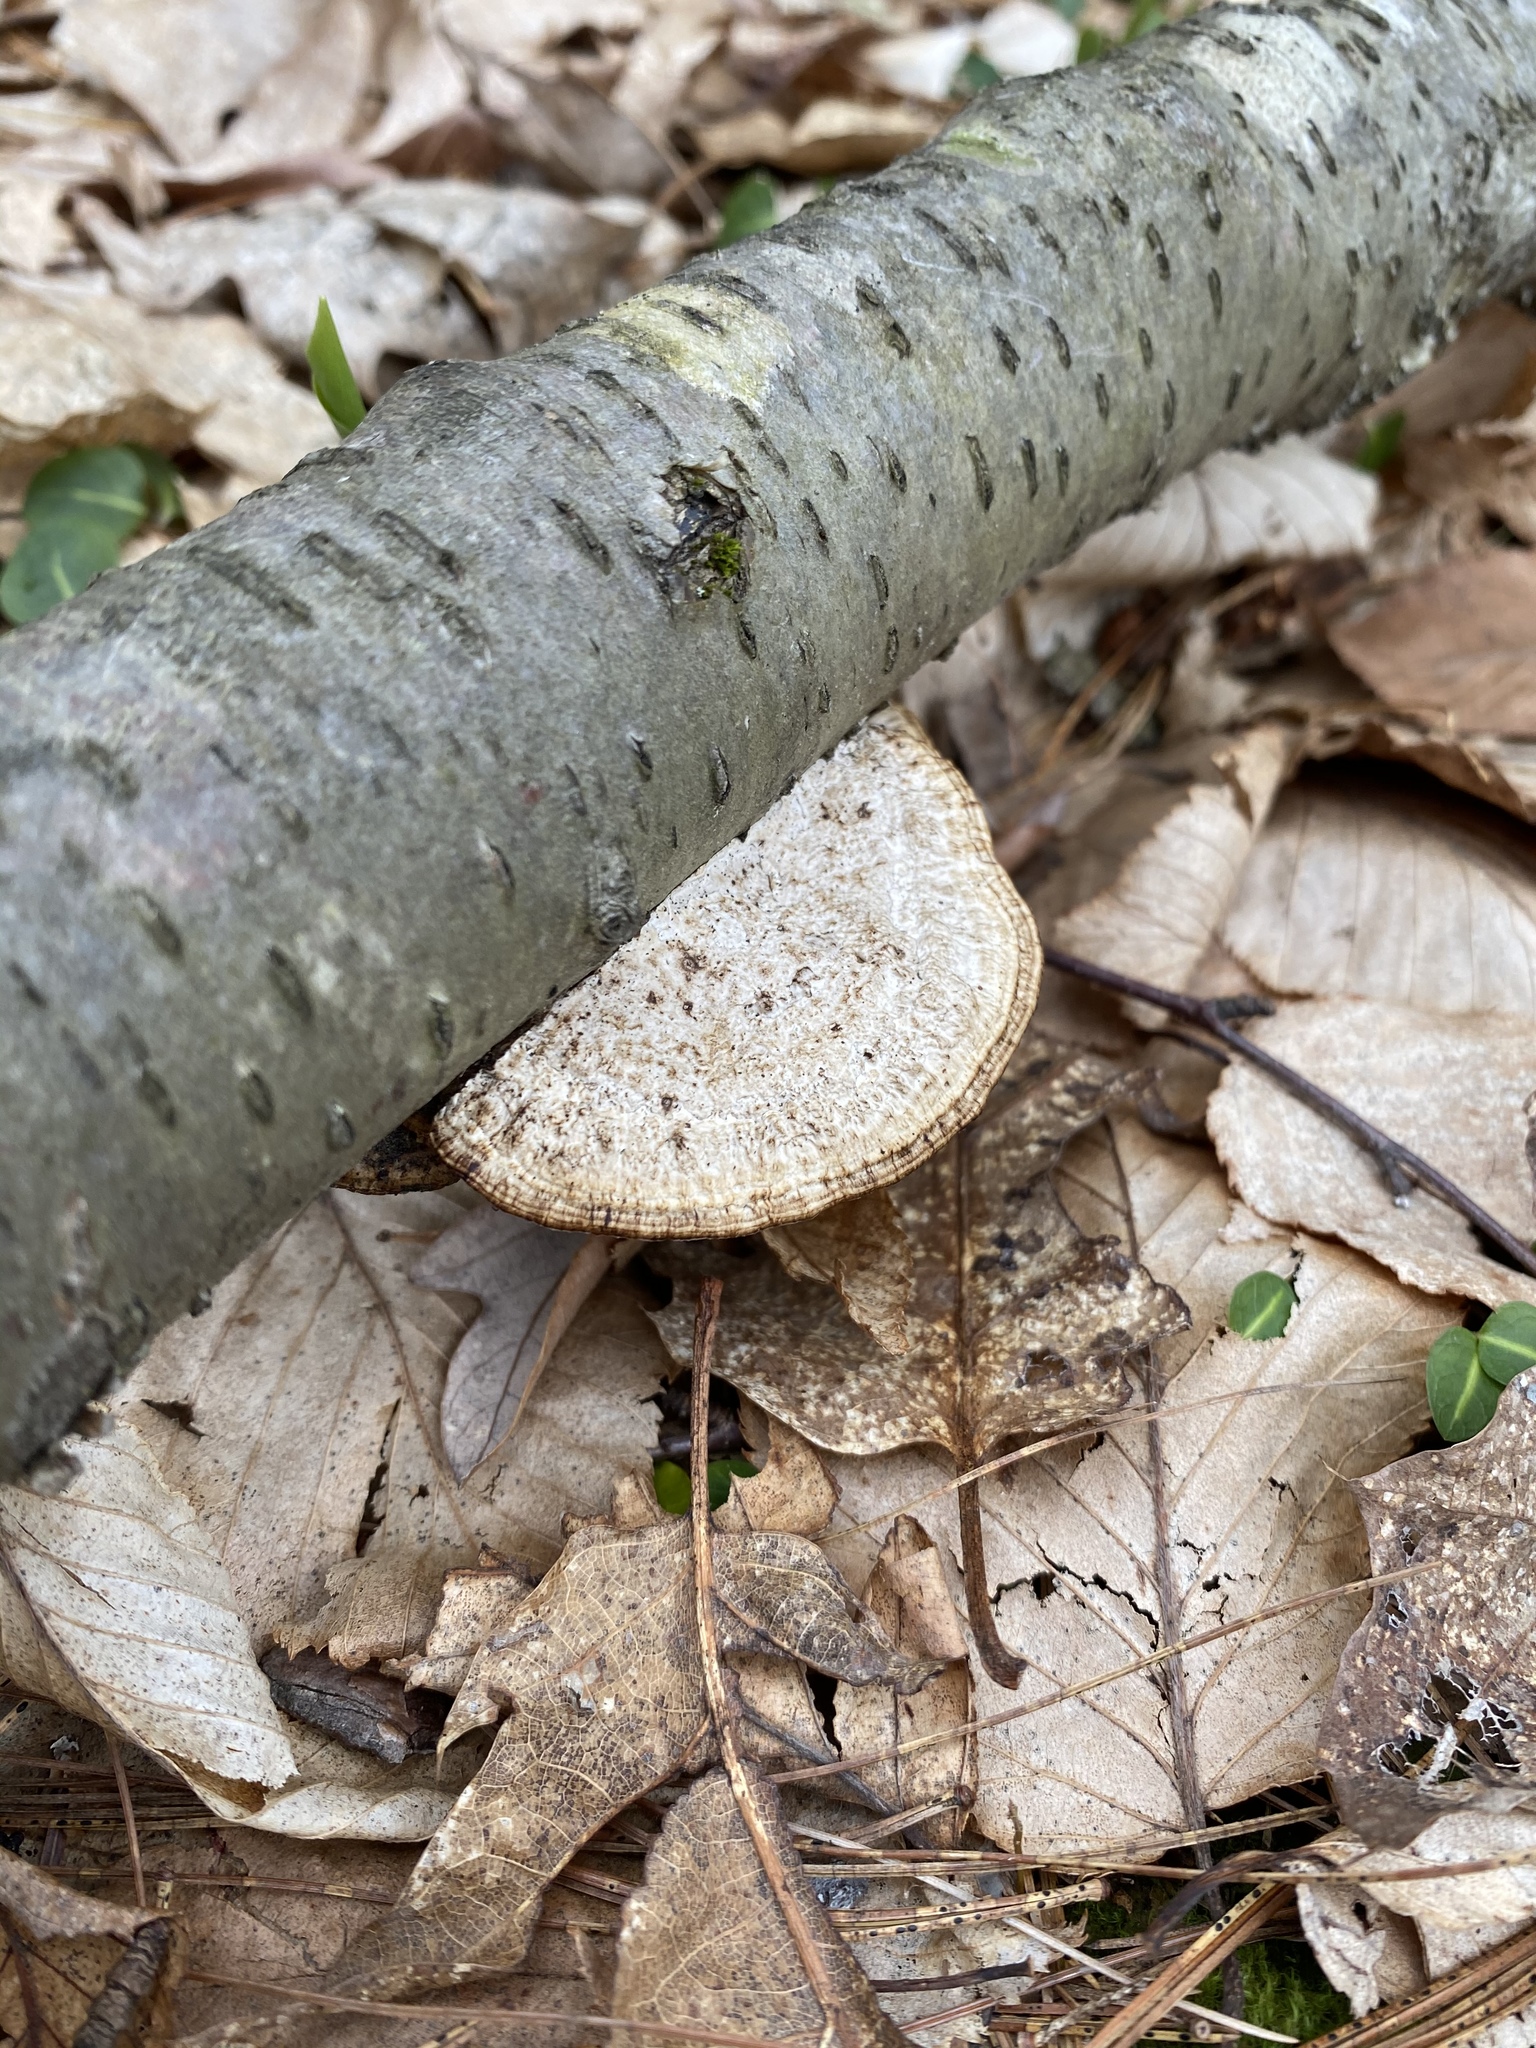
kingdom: Fungi
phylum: Basidiomycota
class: Agaricomycetes
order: Polyporales
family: Polyporaceae
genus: Daedaleopsis
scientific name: Daedaleopsis confragosa
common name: Blushing bracket
